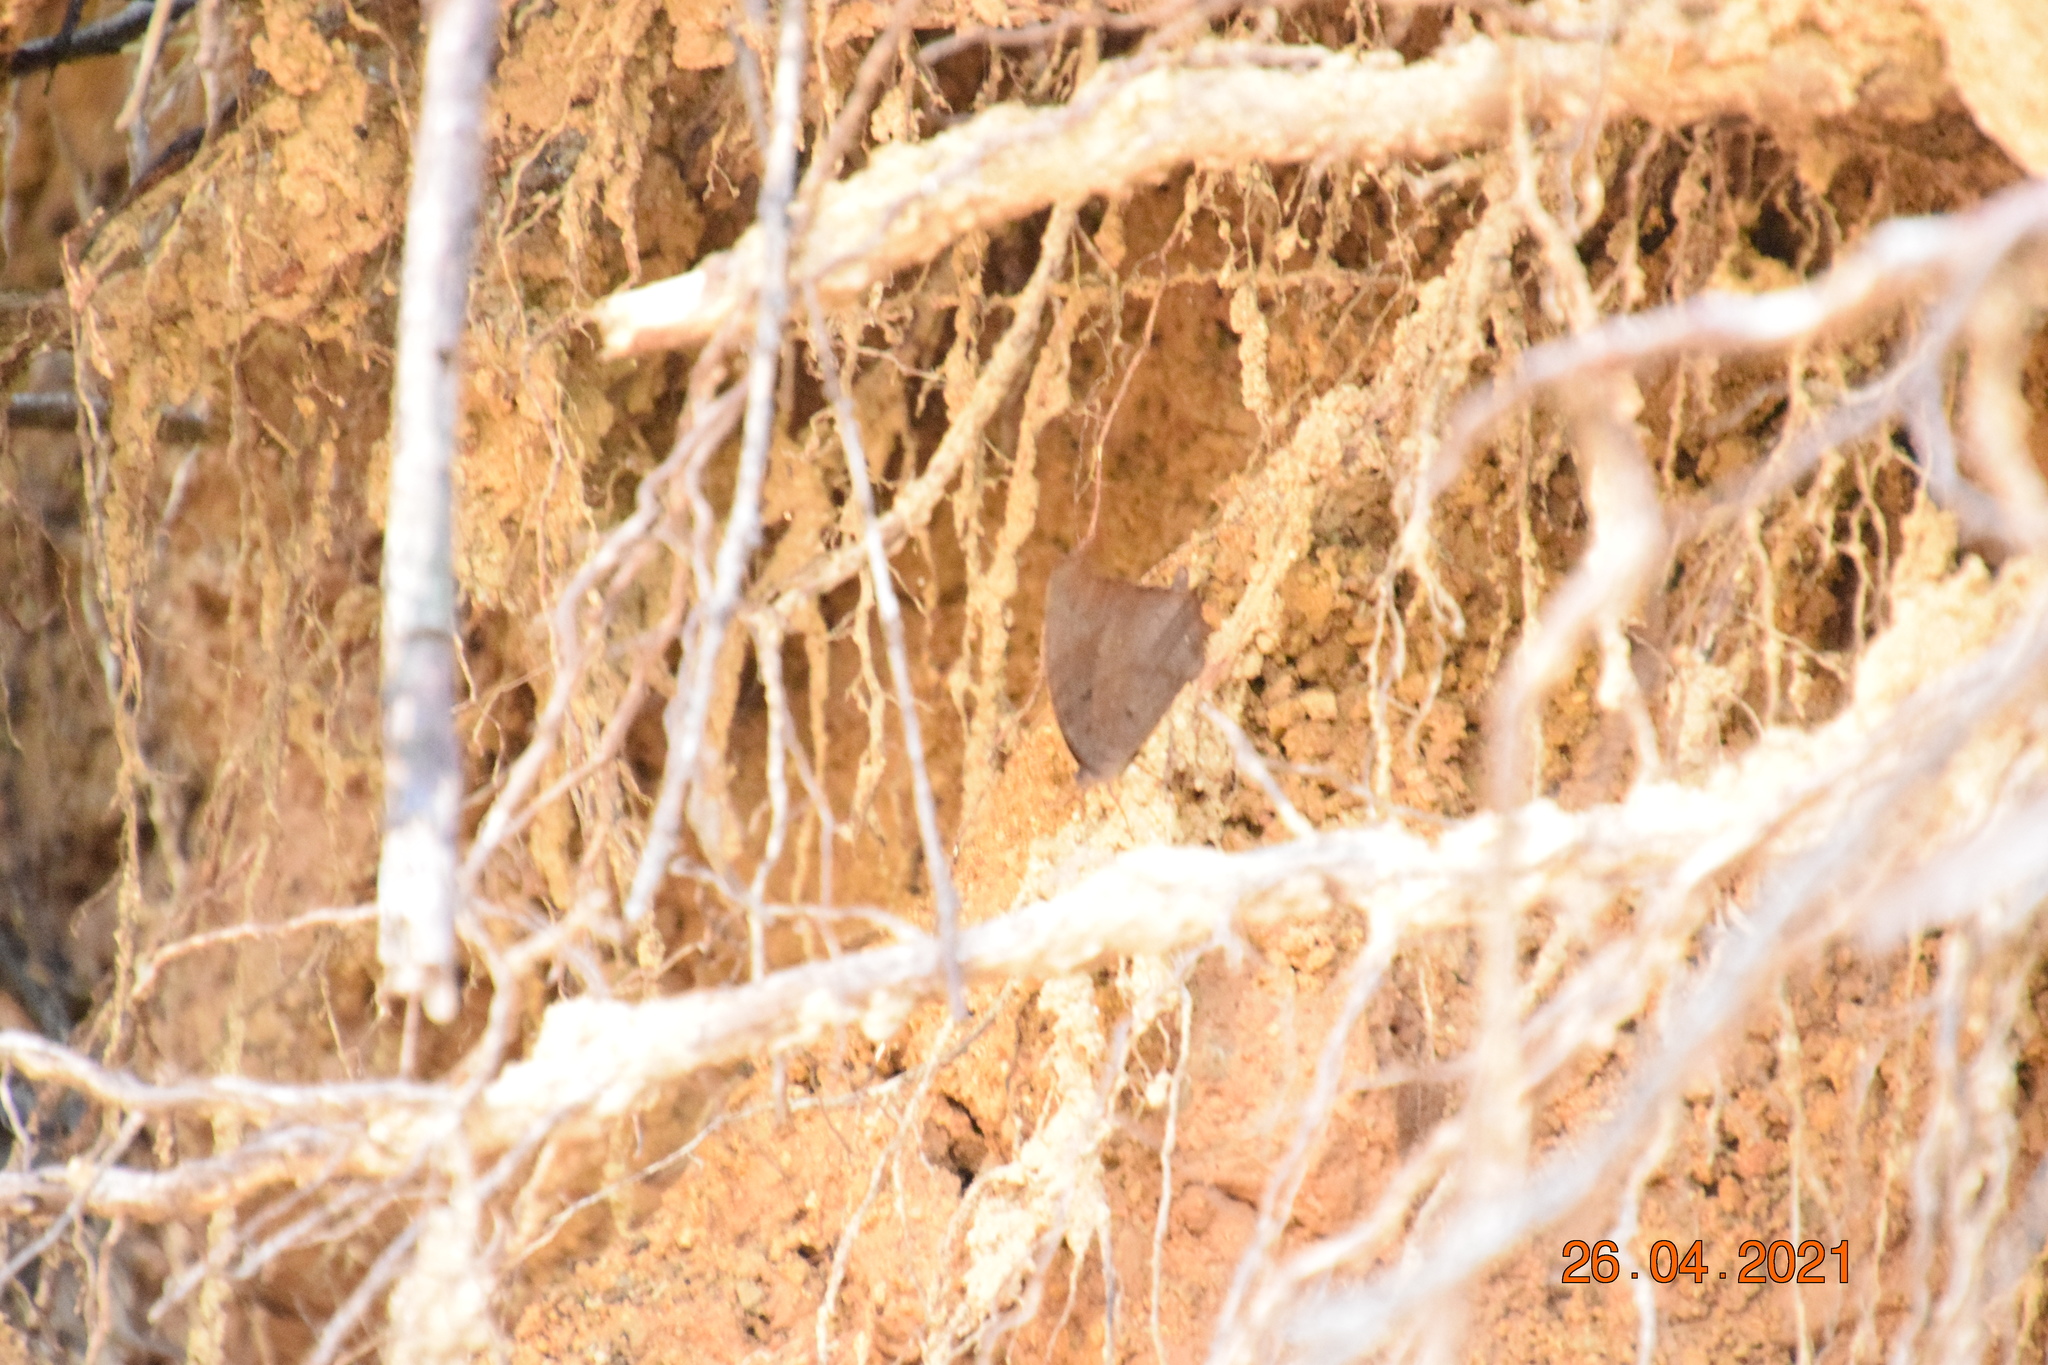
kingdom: Animalia
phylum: Arthropoda
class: Insecta
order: Lepidoptera
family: Nymphalidae
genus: Melanitis
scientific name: Melanitis leda
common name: Twilight brown
